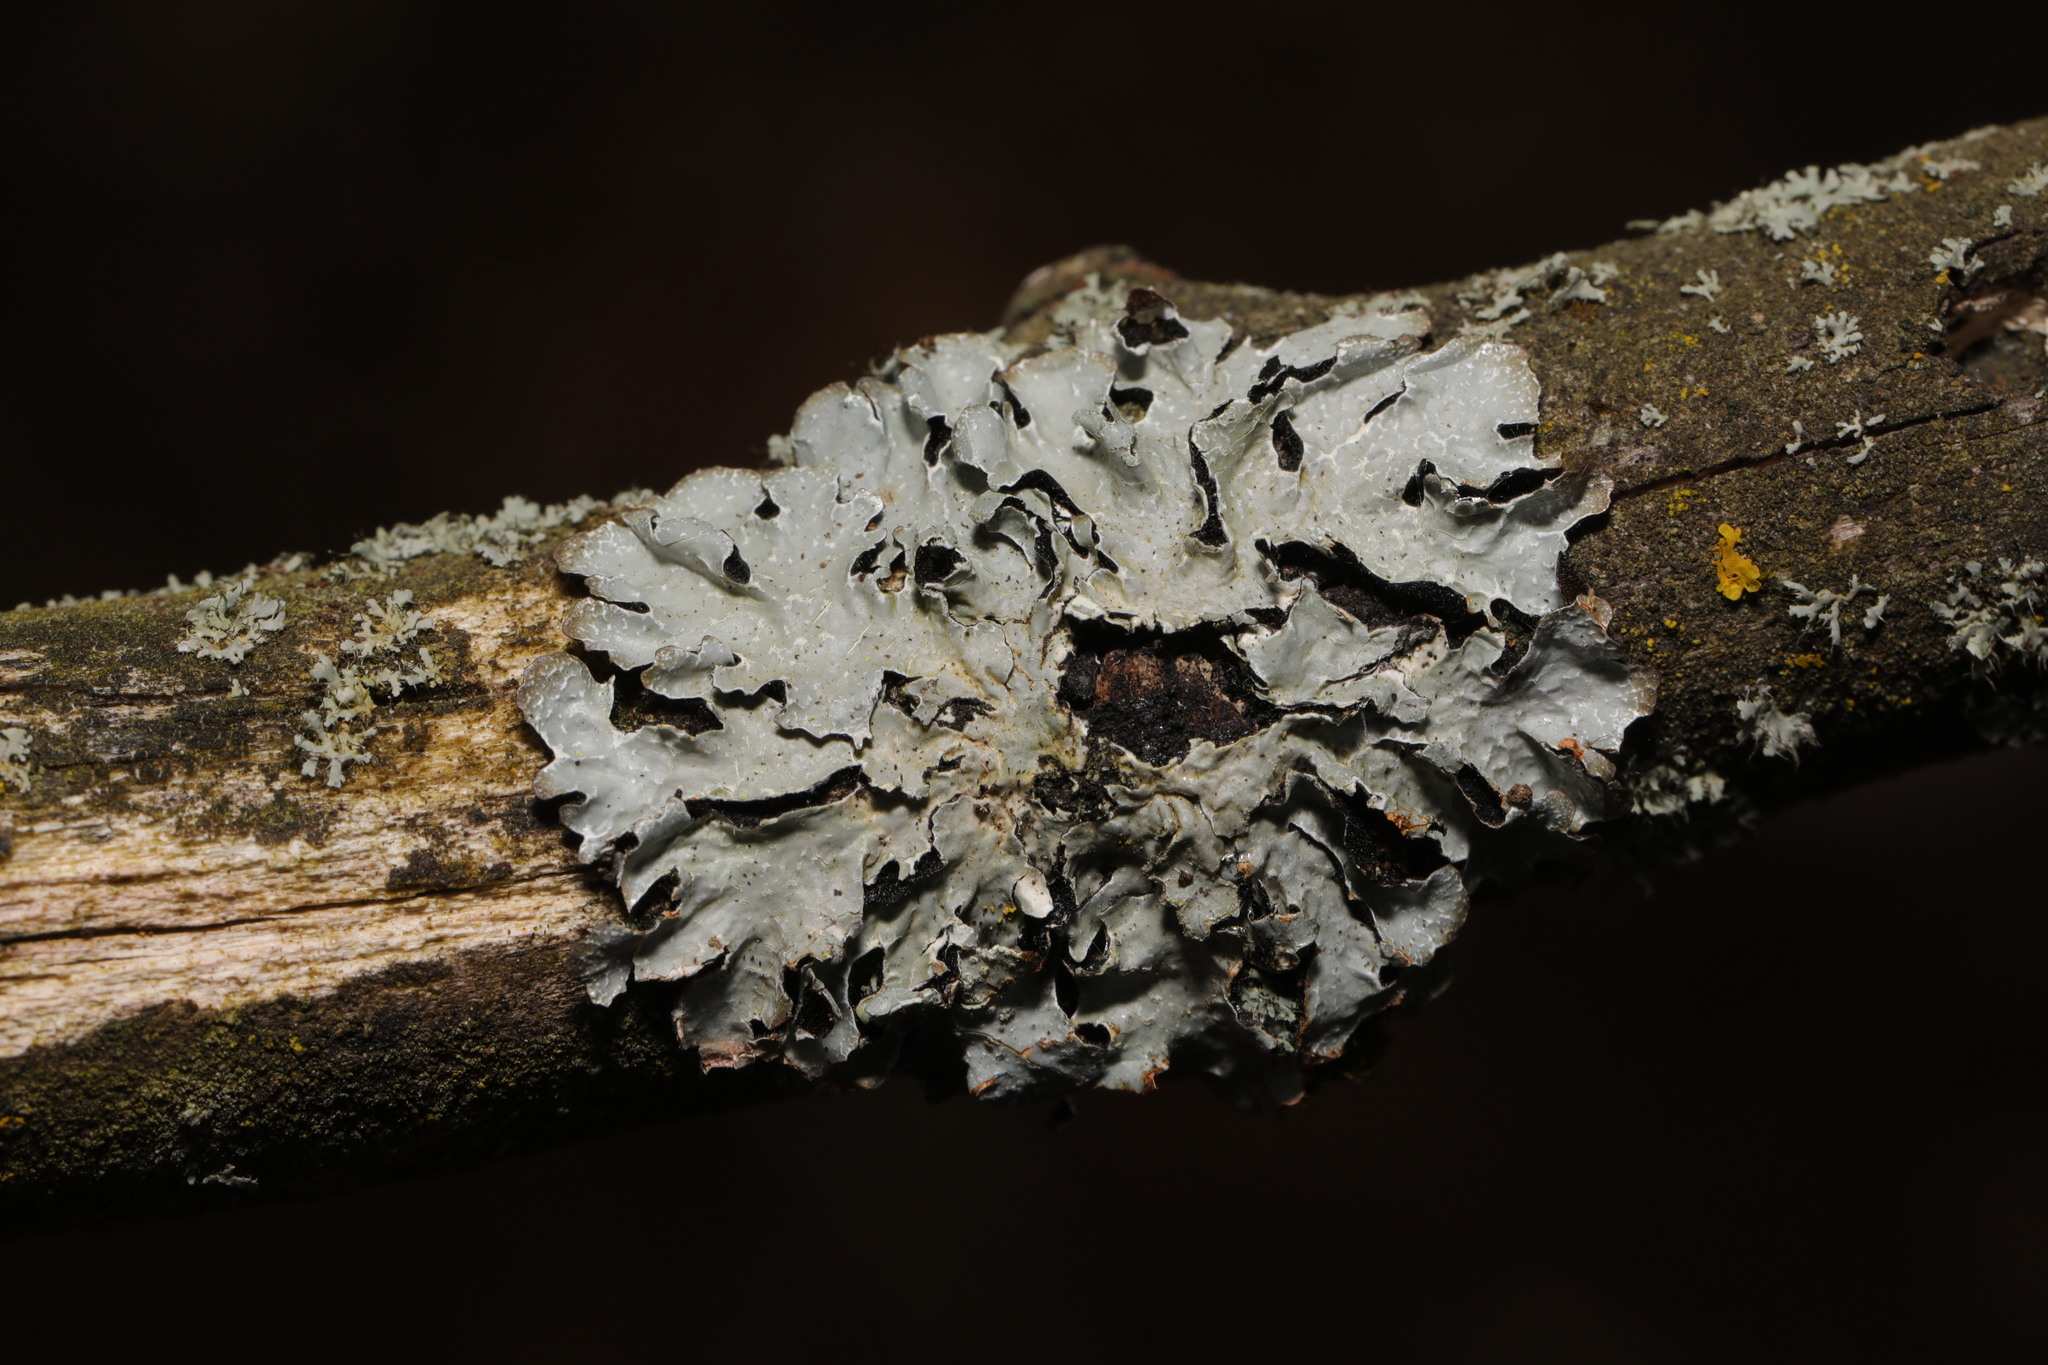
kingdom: Fungi
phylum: Ascomycota
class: Lecanoromycetes
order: Lecanorales
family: Parmeliaceae
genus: Parmelia
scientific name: Parmelia sulcata
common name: Netted shield lichen
